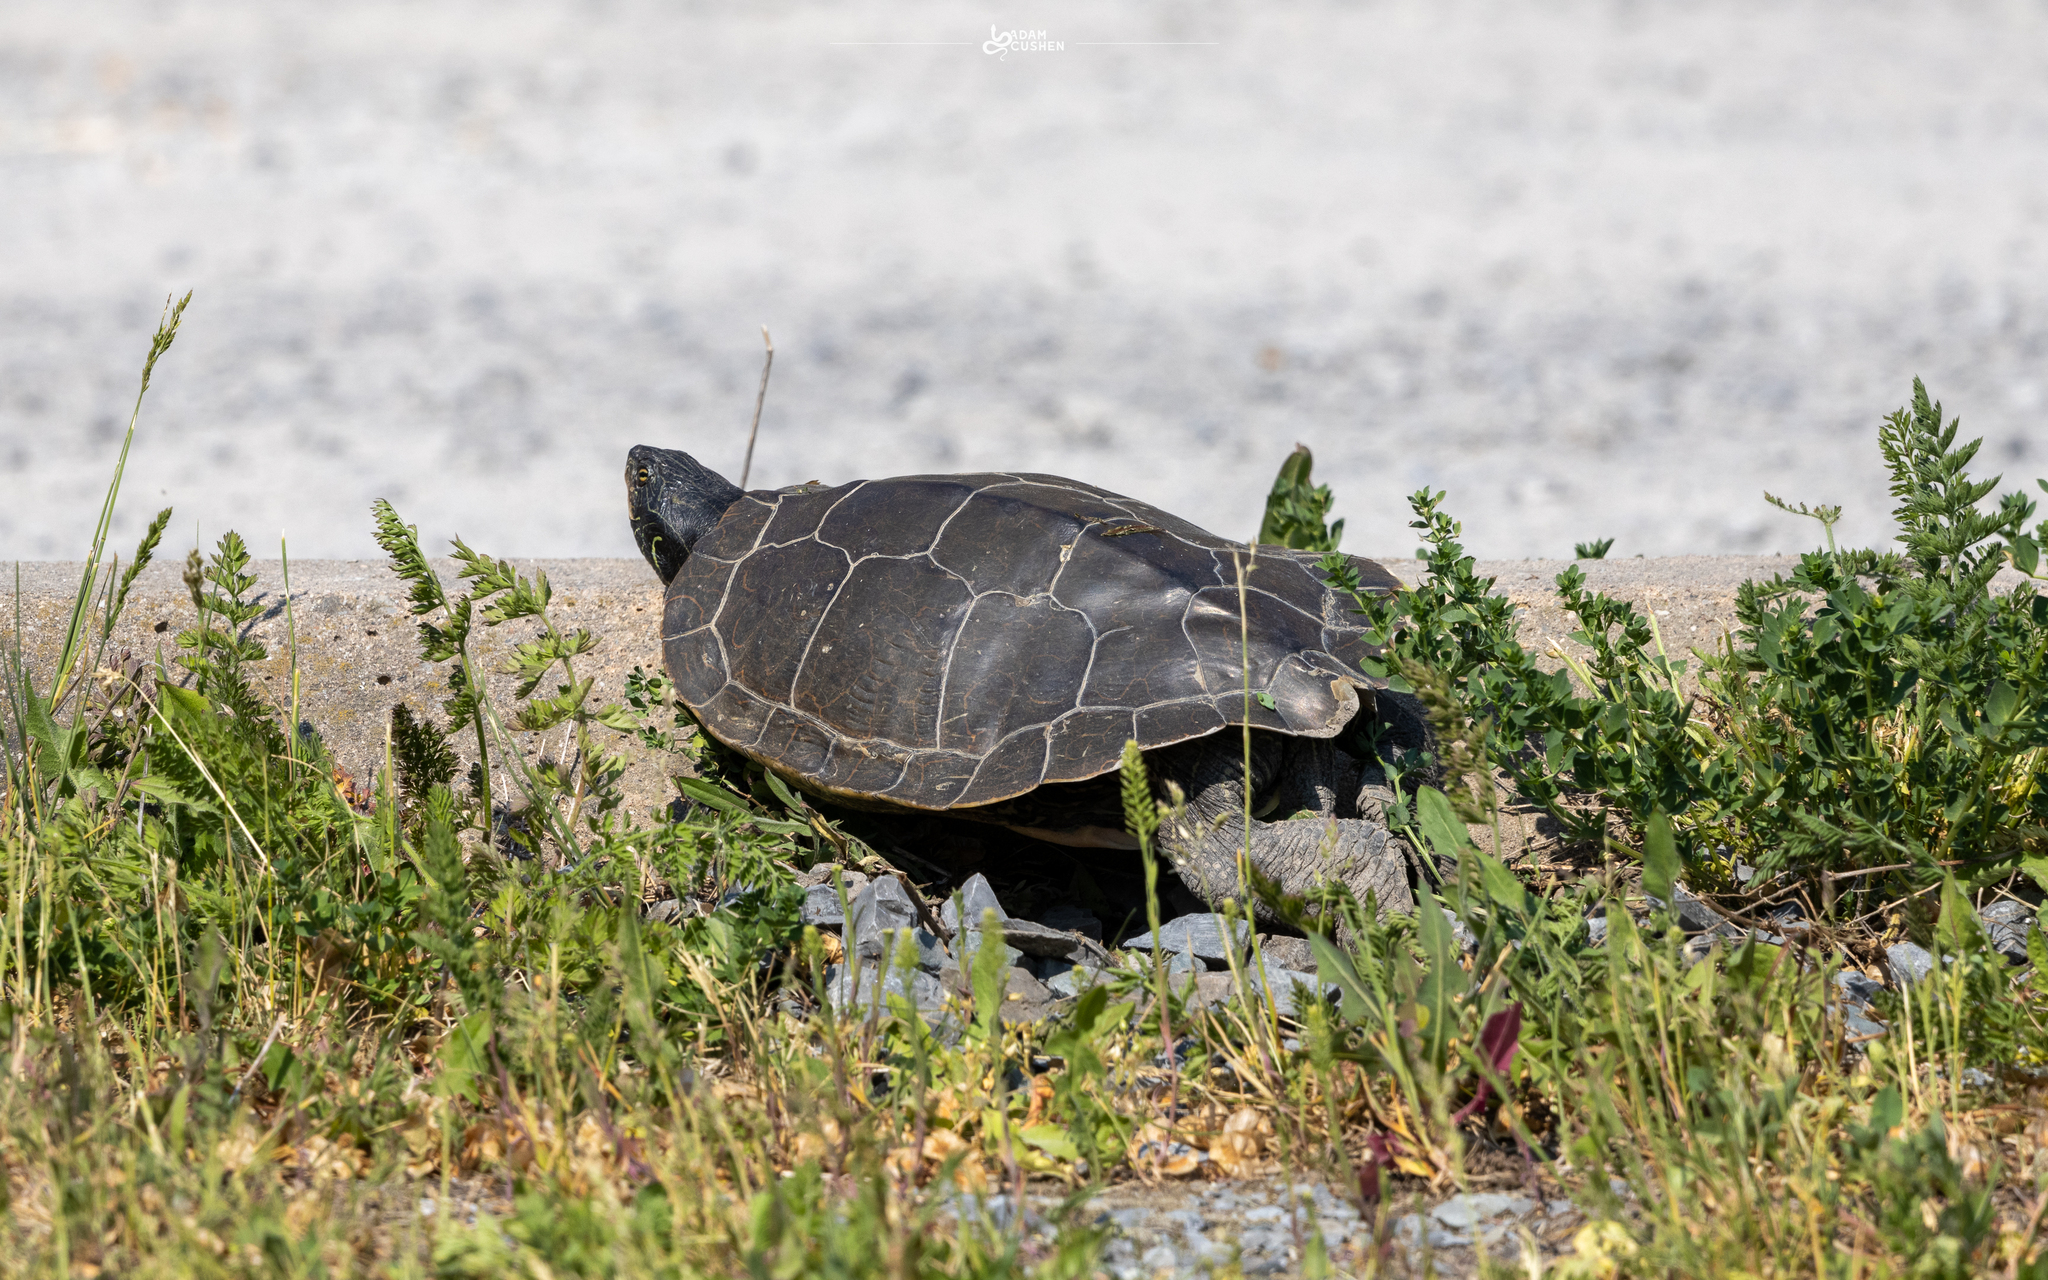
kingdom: Animalia
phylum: Chordata
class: Testudines
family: Emydidae
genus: Graptemys
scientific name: Graptemys geographica
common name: Common map turtle
